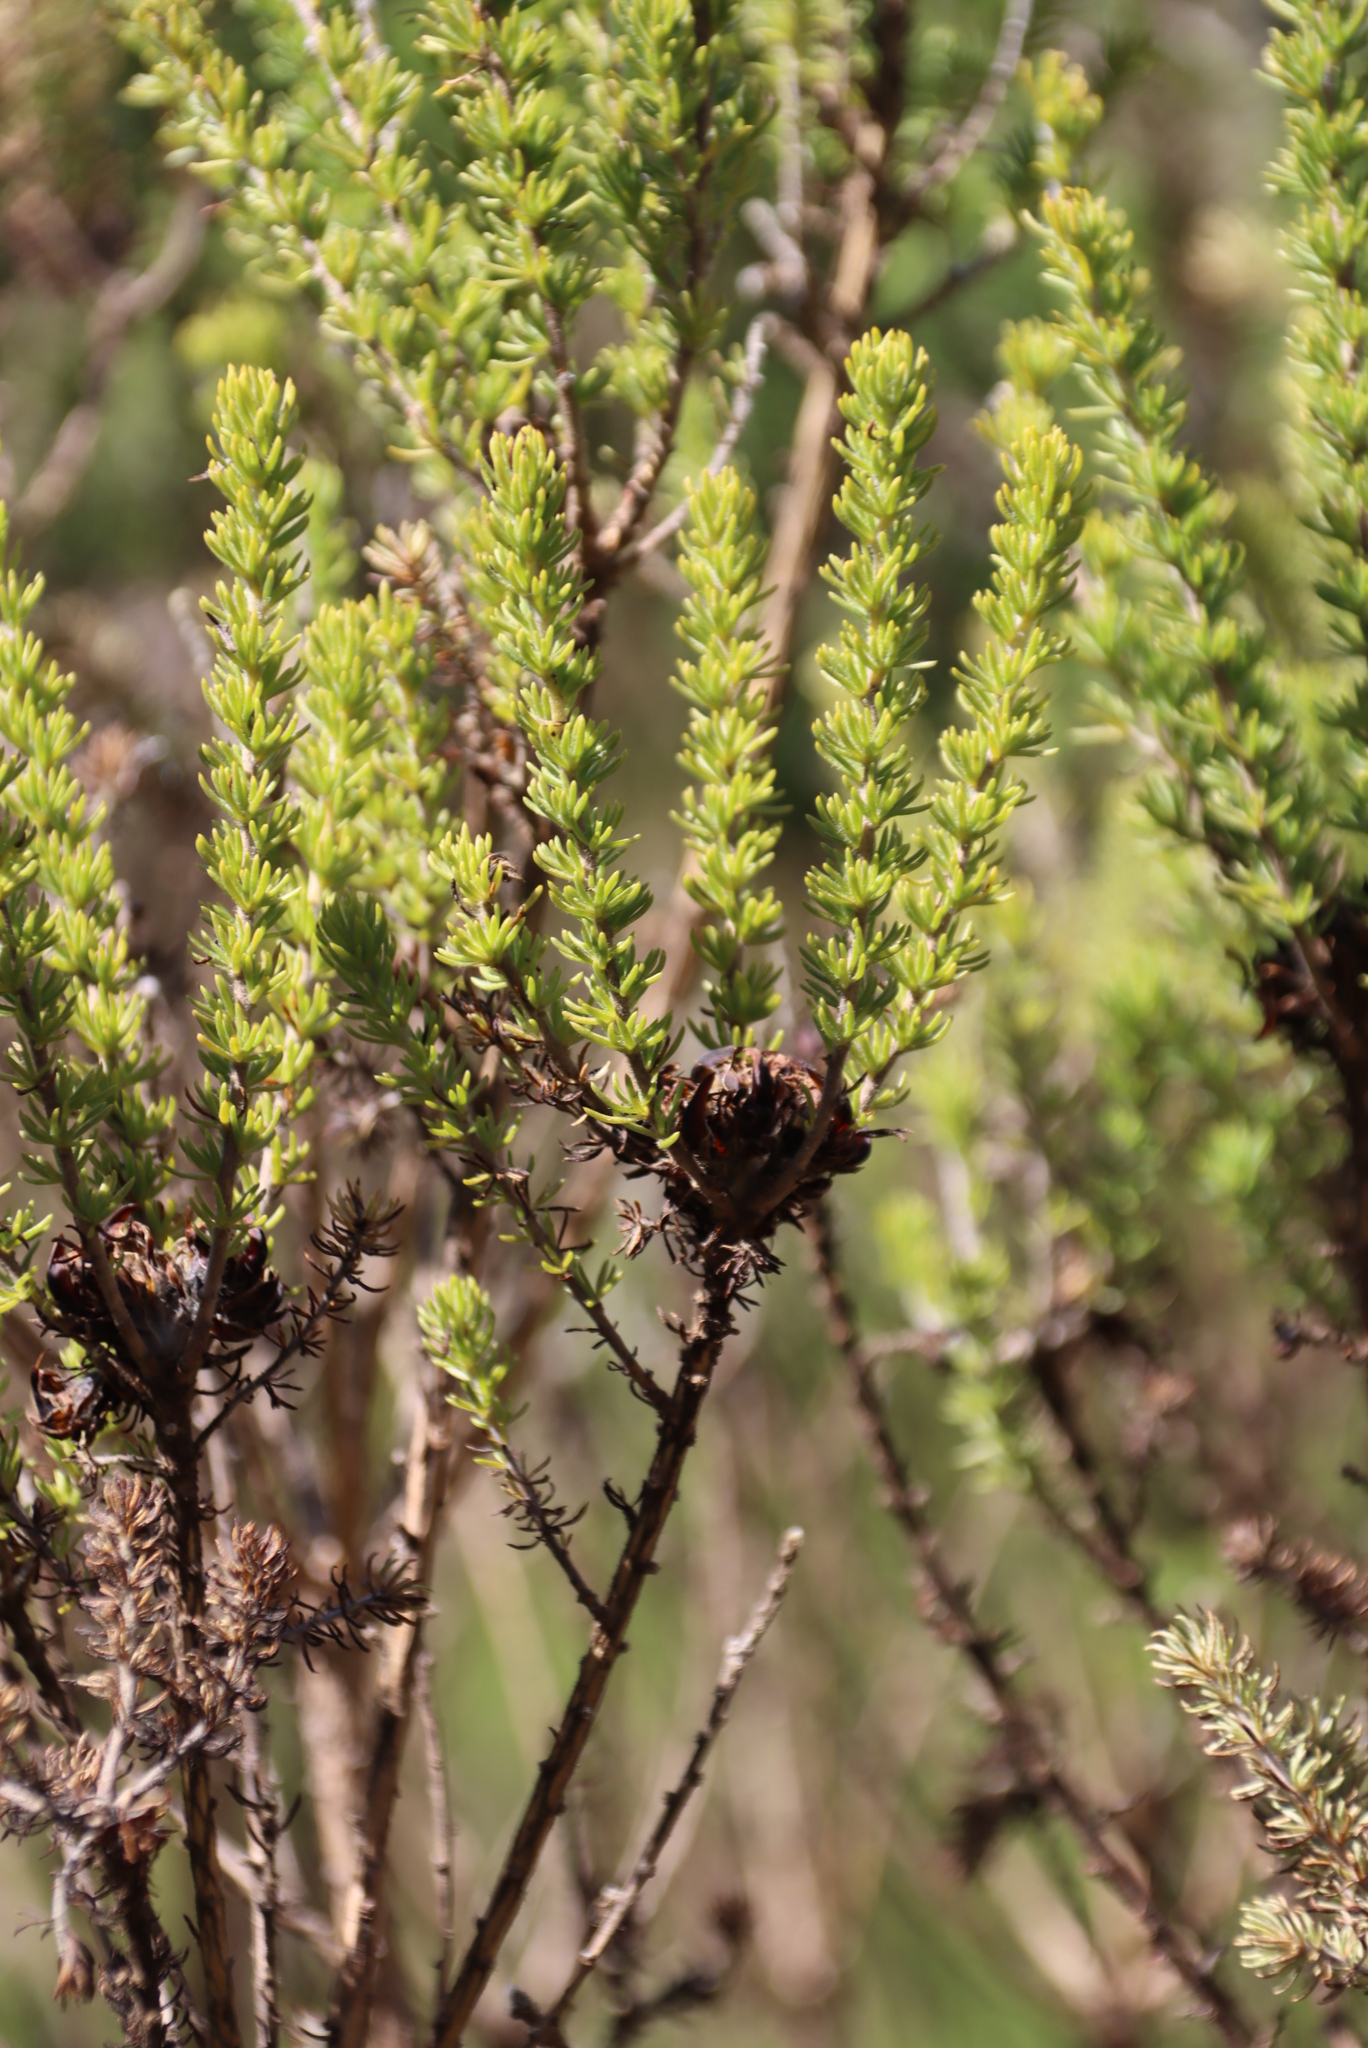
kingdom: Plantae
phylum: Tracheophyta
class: Magnoliopsida
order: Fabales
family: Fabaceae
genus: Aspalathus
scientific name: Aspalathus capitata
